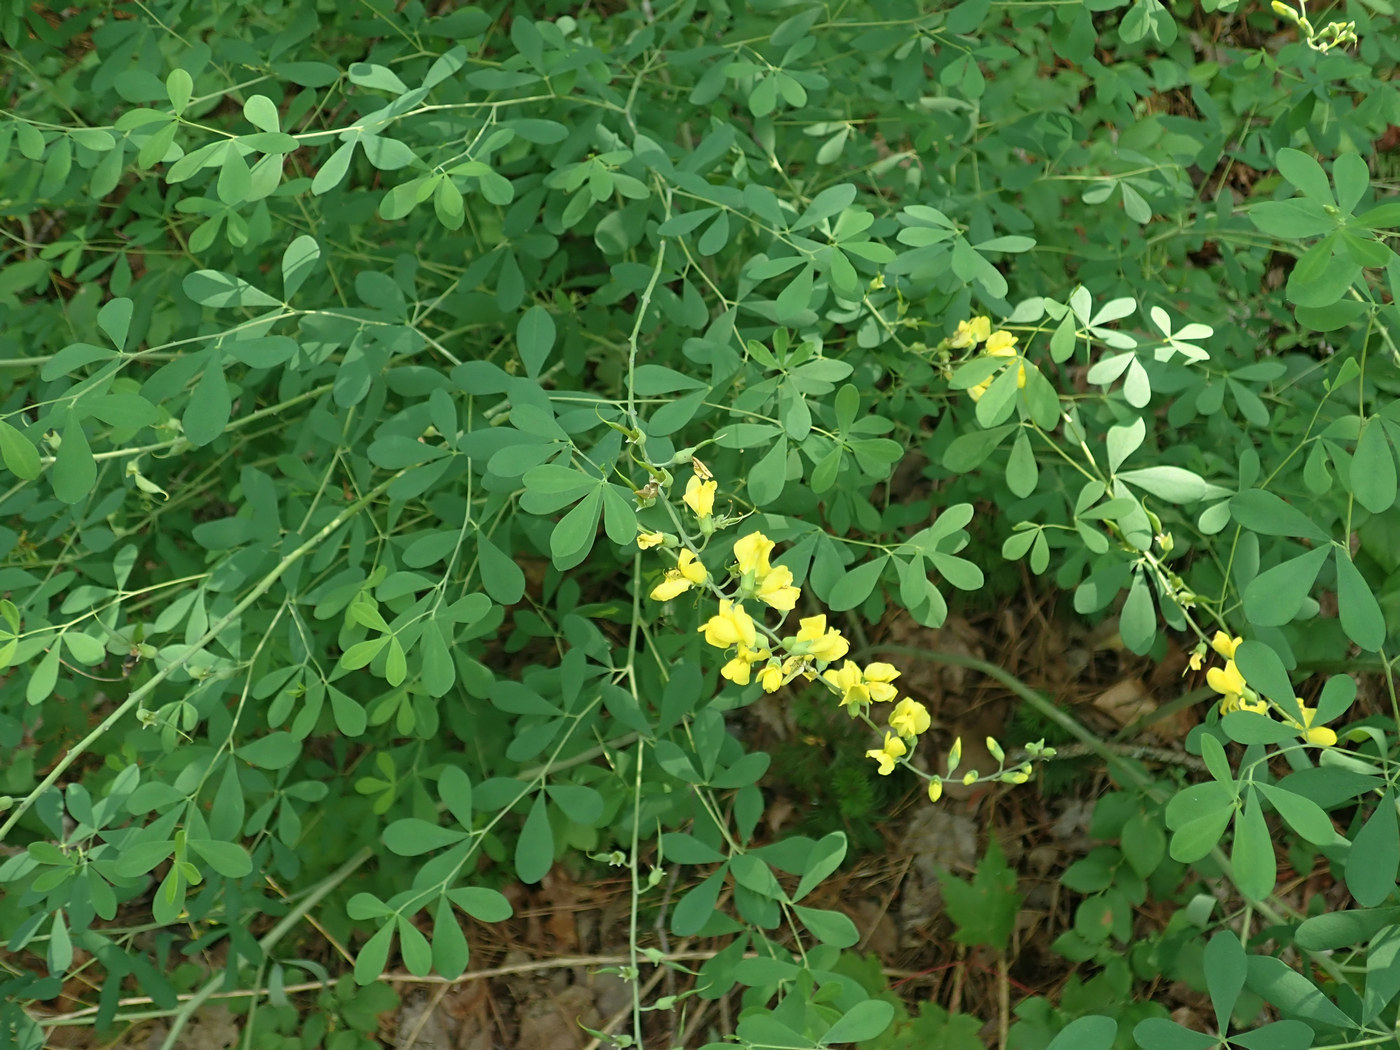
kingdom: Plantae
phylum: Tracheophyta
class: Magnoliopsida
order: Fabales
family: Fabaceae
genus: Baptisia
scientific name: Baptisia tinctoria
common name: Wild indigo
